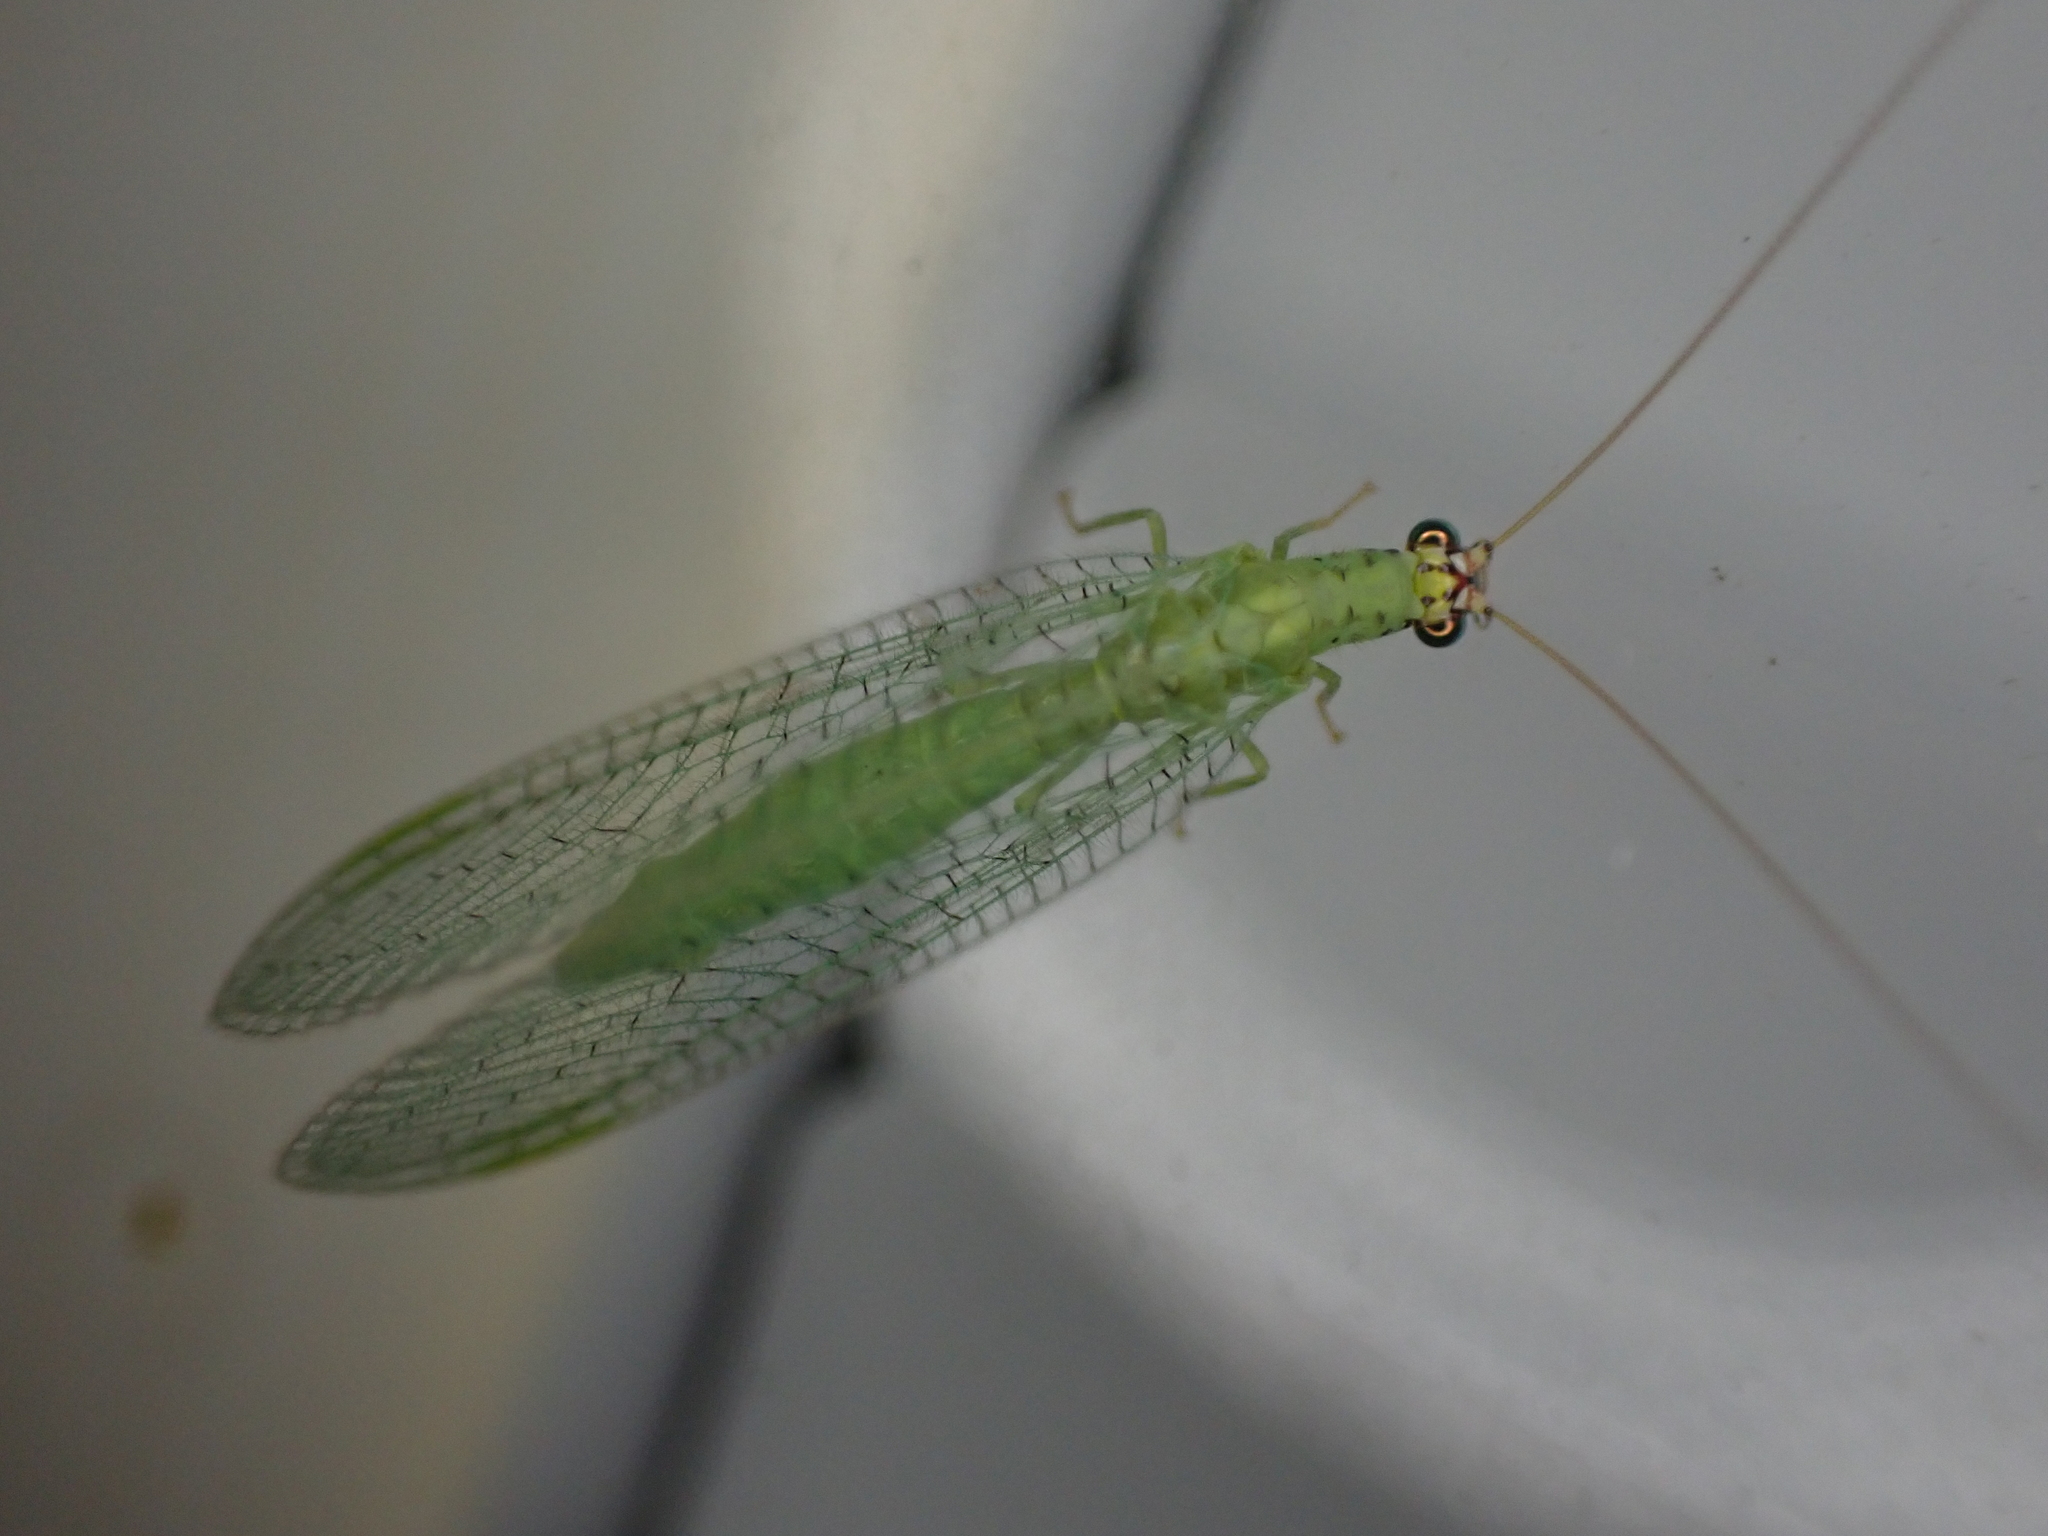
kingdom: Animalia
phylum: Arthropoda
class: Insecta
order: Neuroptera
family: Chrysopidae
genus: Chrysopa
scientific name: Chrysopa oculata
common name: Golden-eyed lacewing
